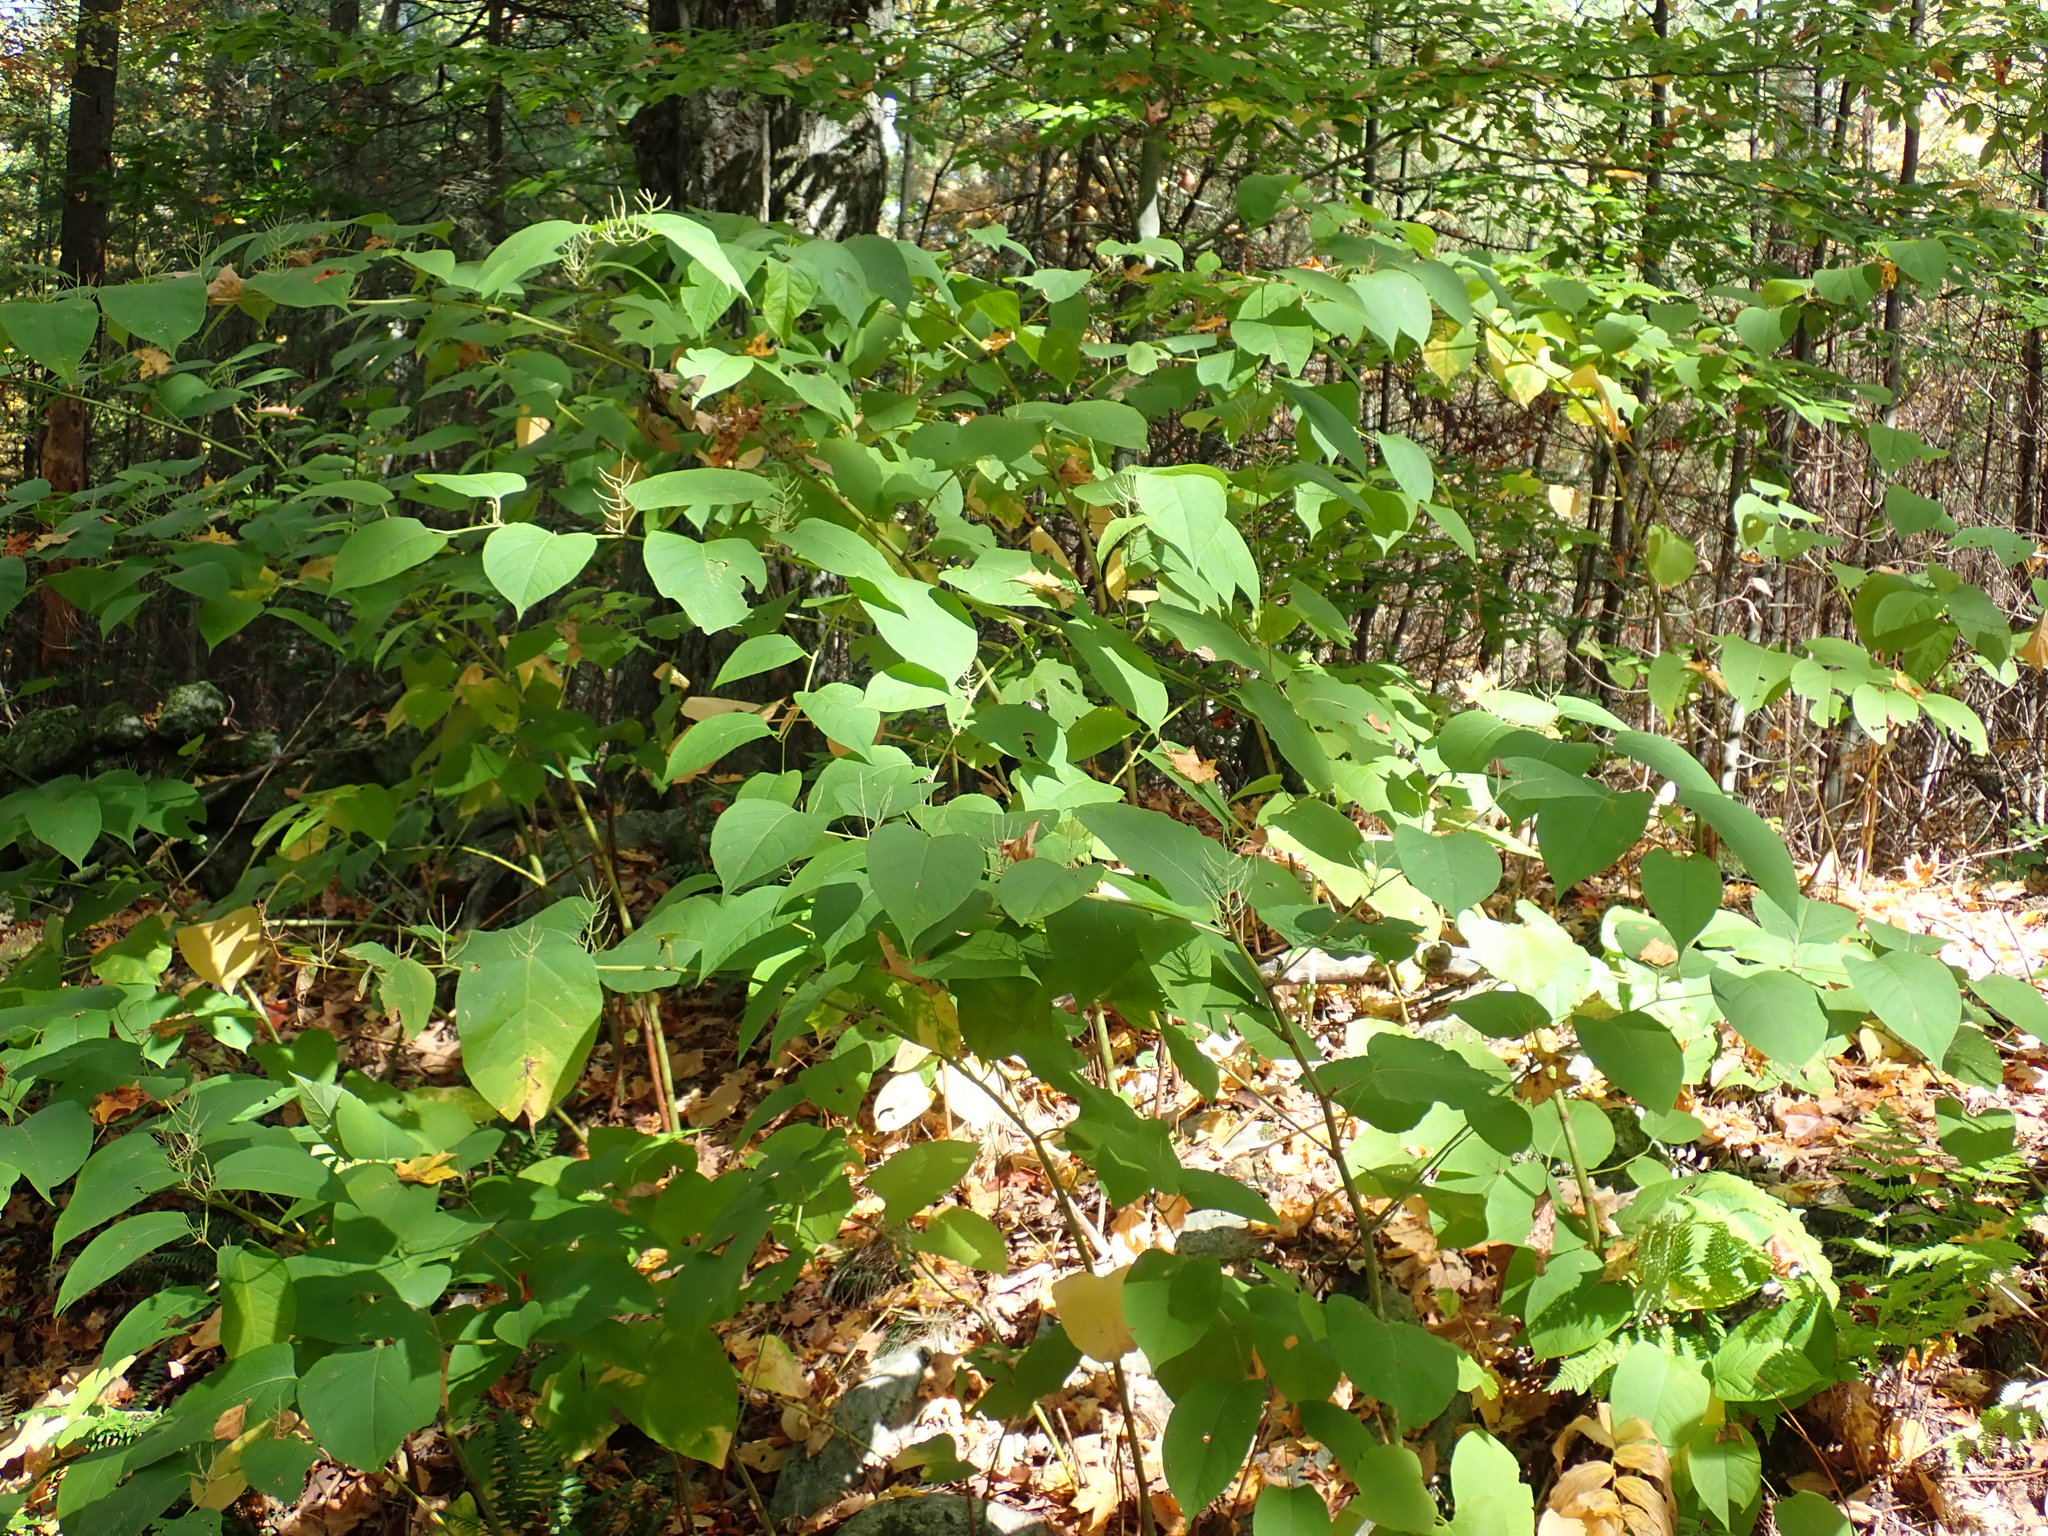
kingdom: Plantae
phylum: Tracheophyta
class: Magnoliopsida
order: Caryophyllales
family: Polygonaceae
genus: Reynoutria
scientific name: Reynoutria japonica
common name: Japanese knotweed
